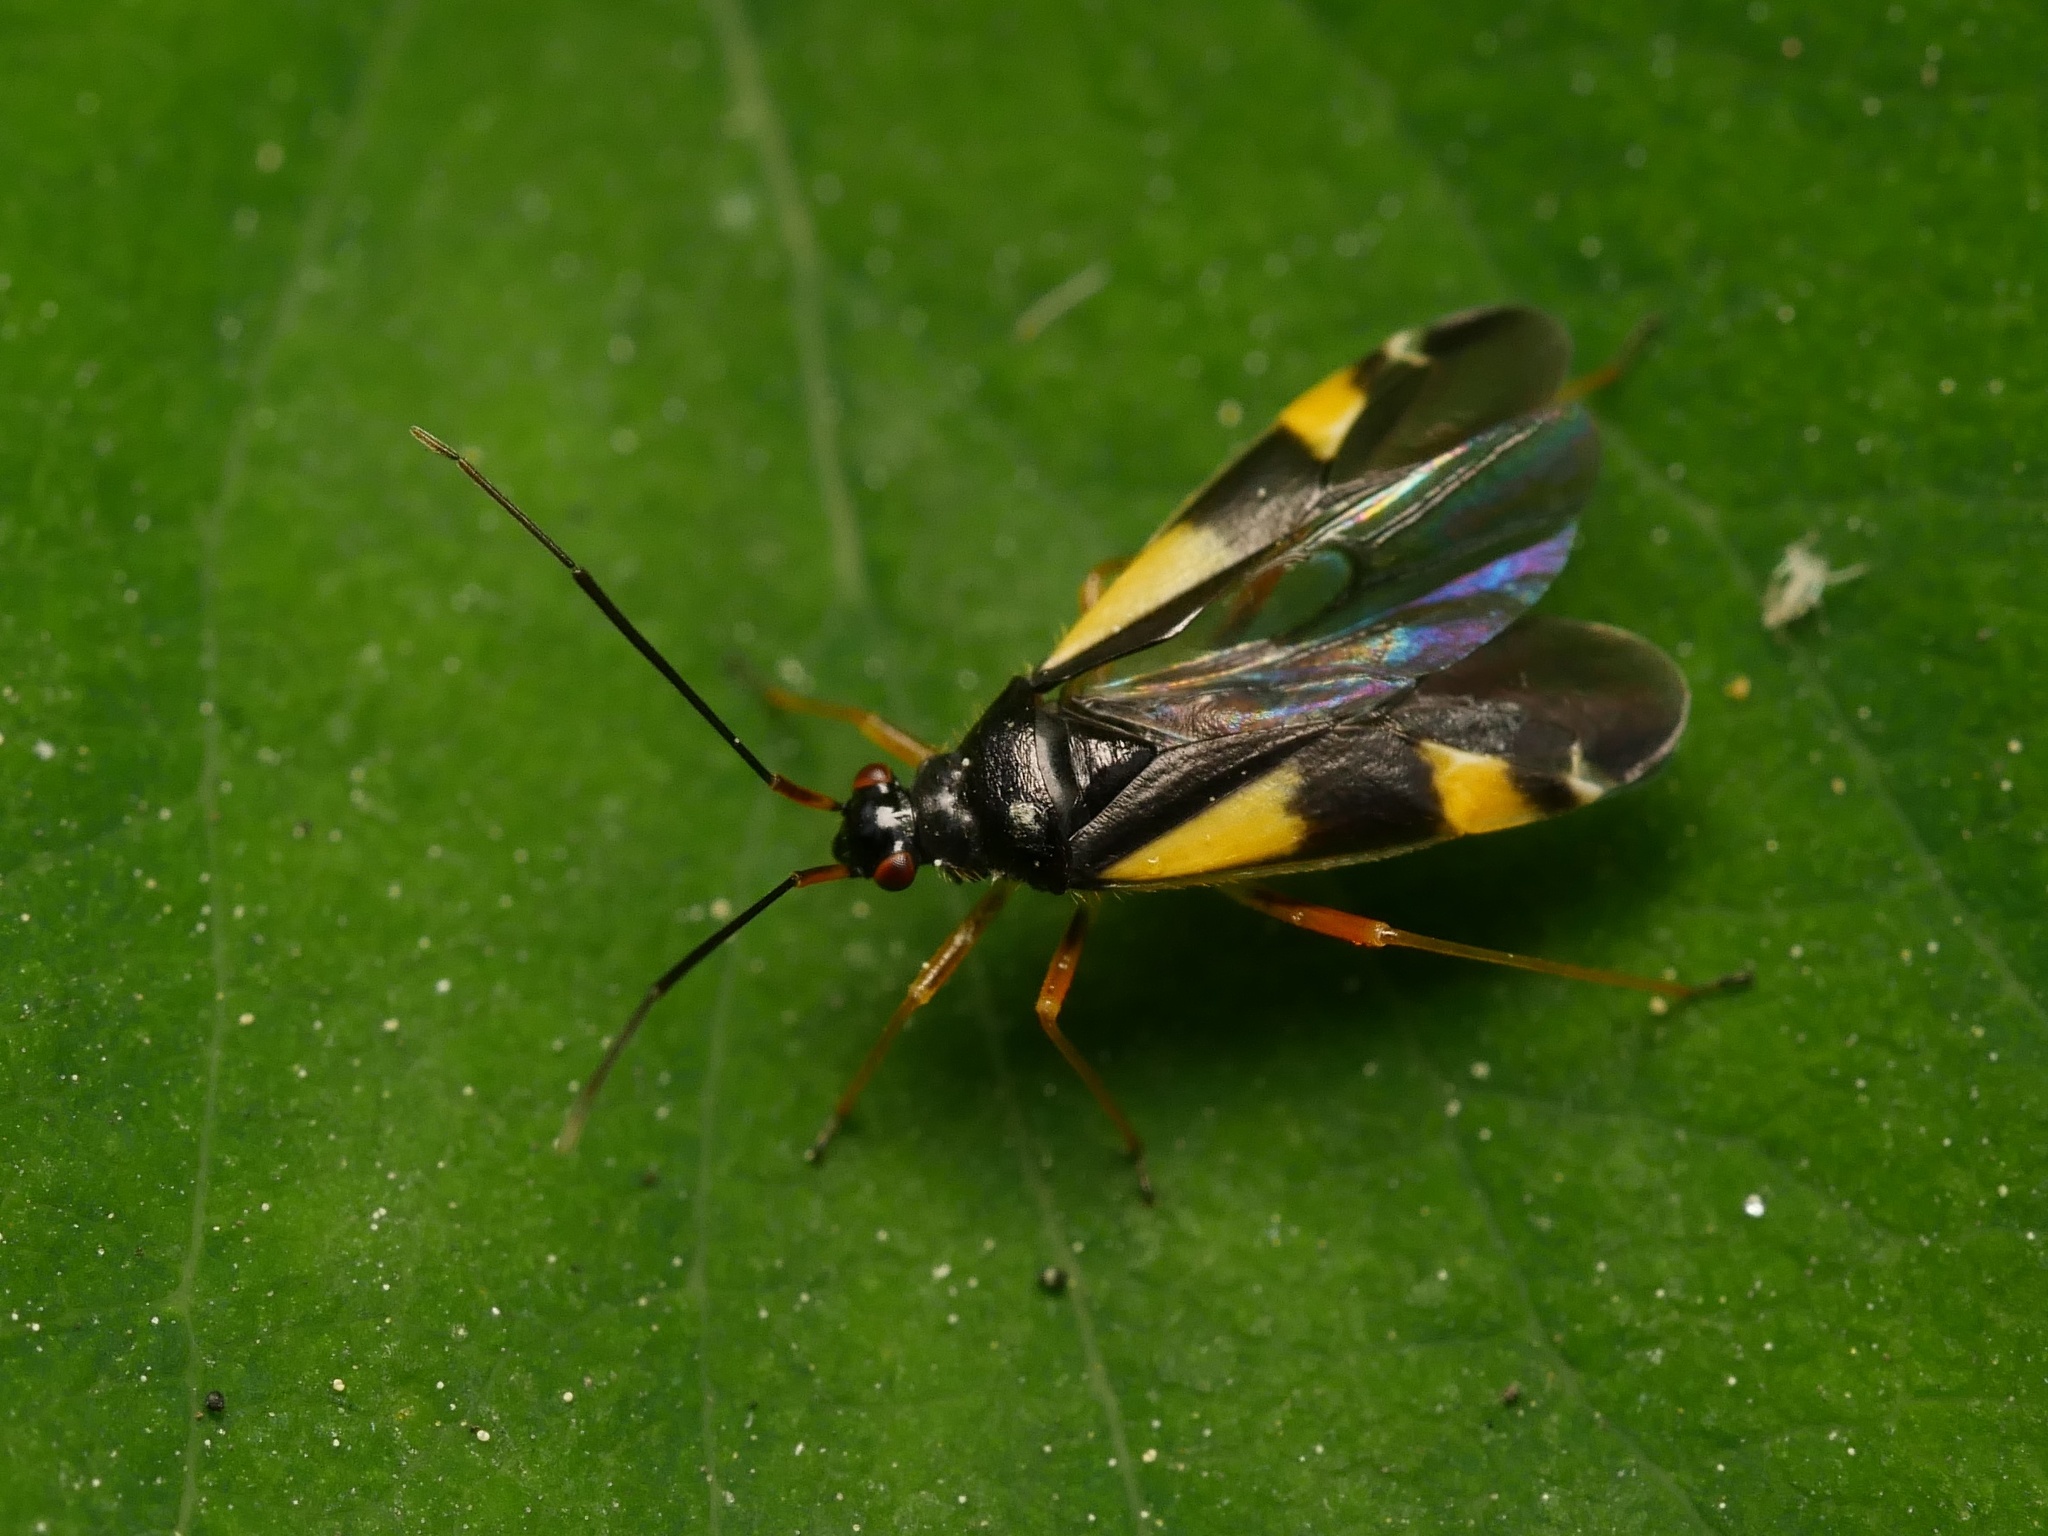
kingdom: Animalia
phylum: Arthropoda
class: Insecta
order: Hemiptera
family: Miridae
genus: Dryophilocoris
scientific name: Dryophilocoris flavoquadrimaculatus
